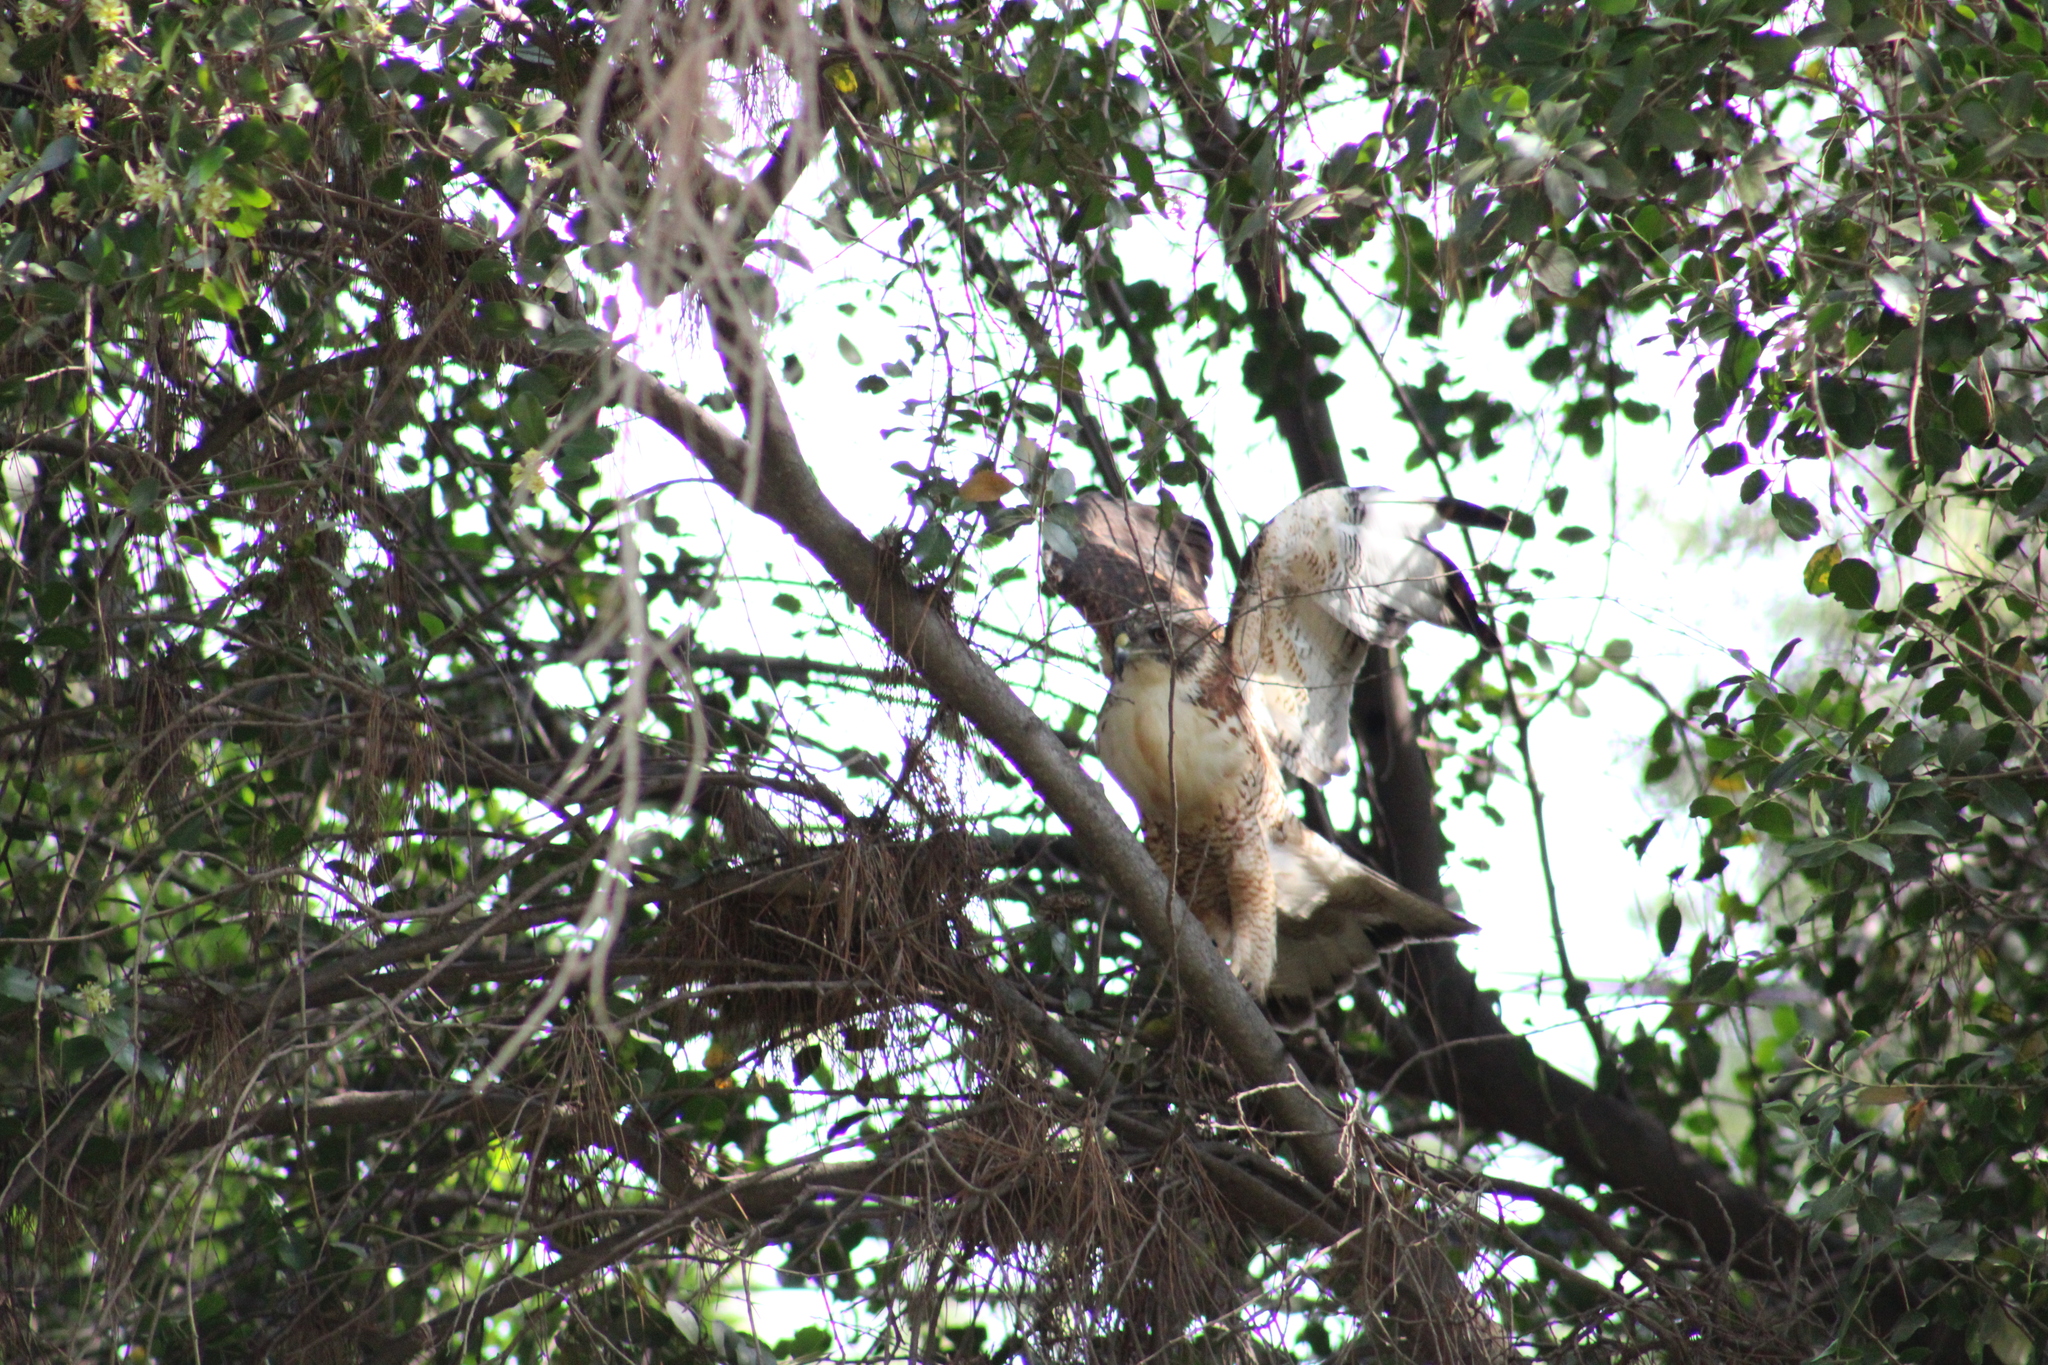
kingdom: Animalia
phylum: Chordata
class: Aves
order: Accipitriformes
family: Accipitridae
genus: Buteo
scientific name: Buteo polyosoma
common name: Variable hawk
